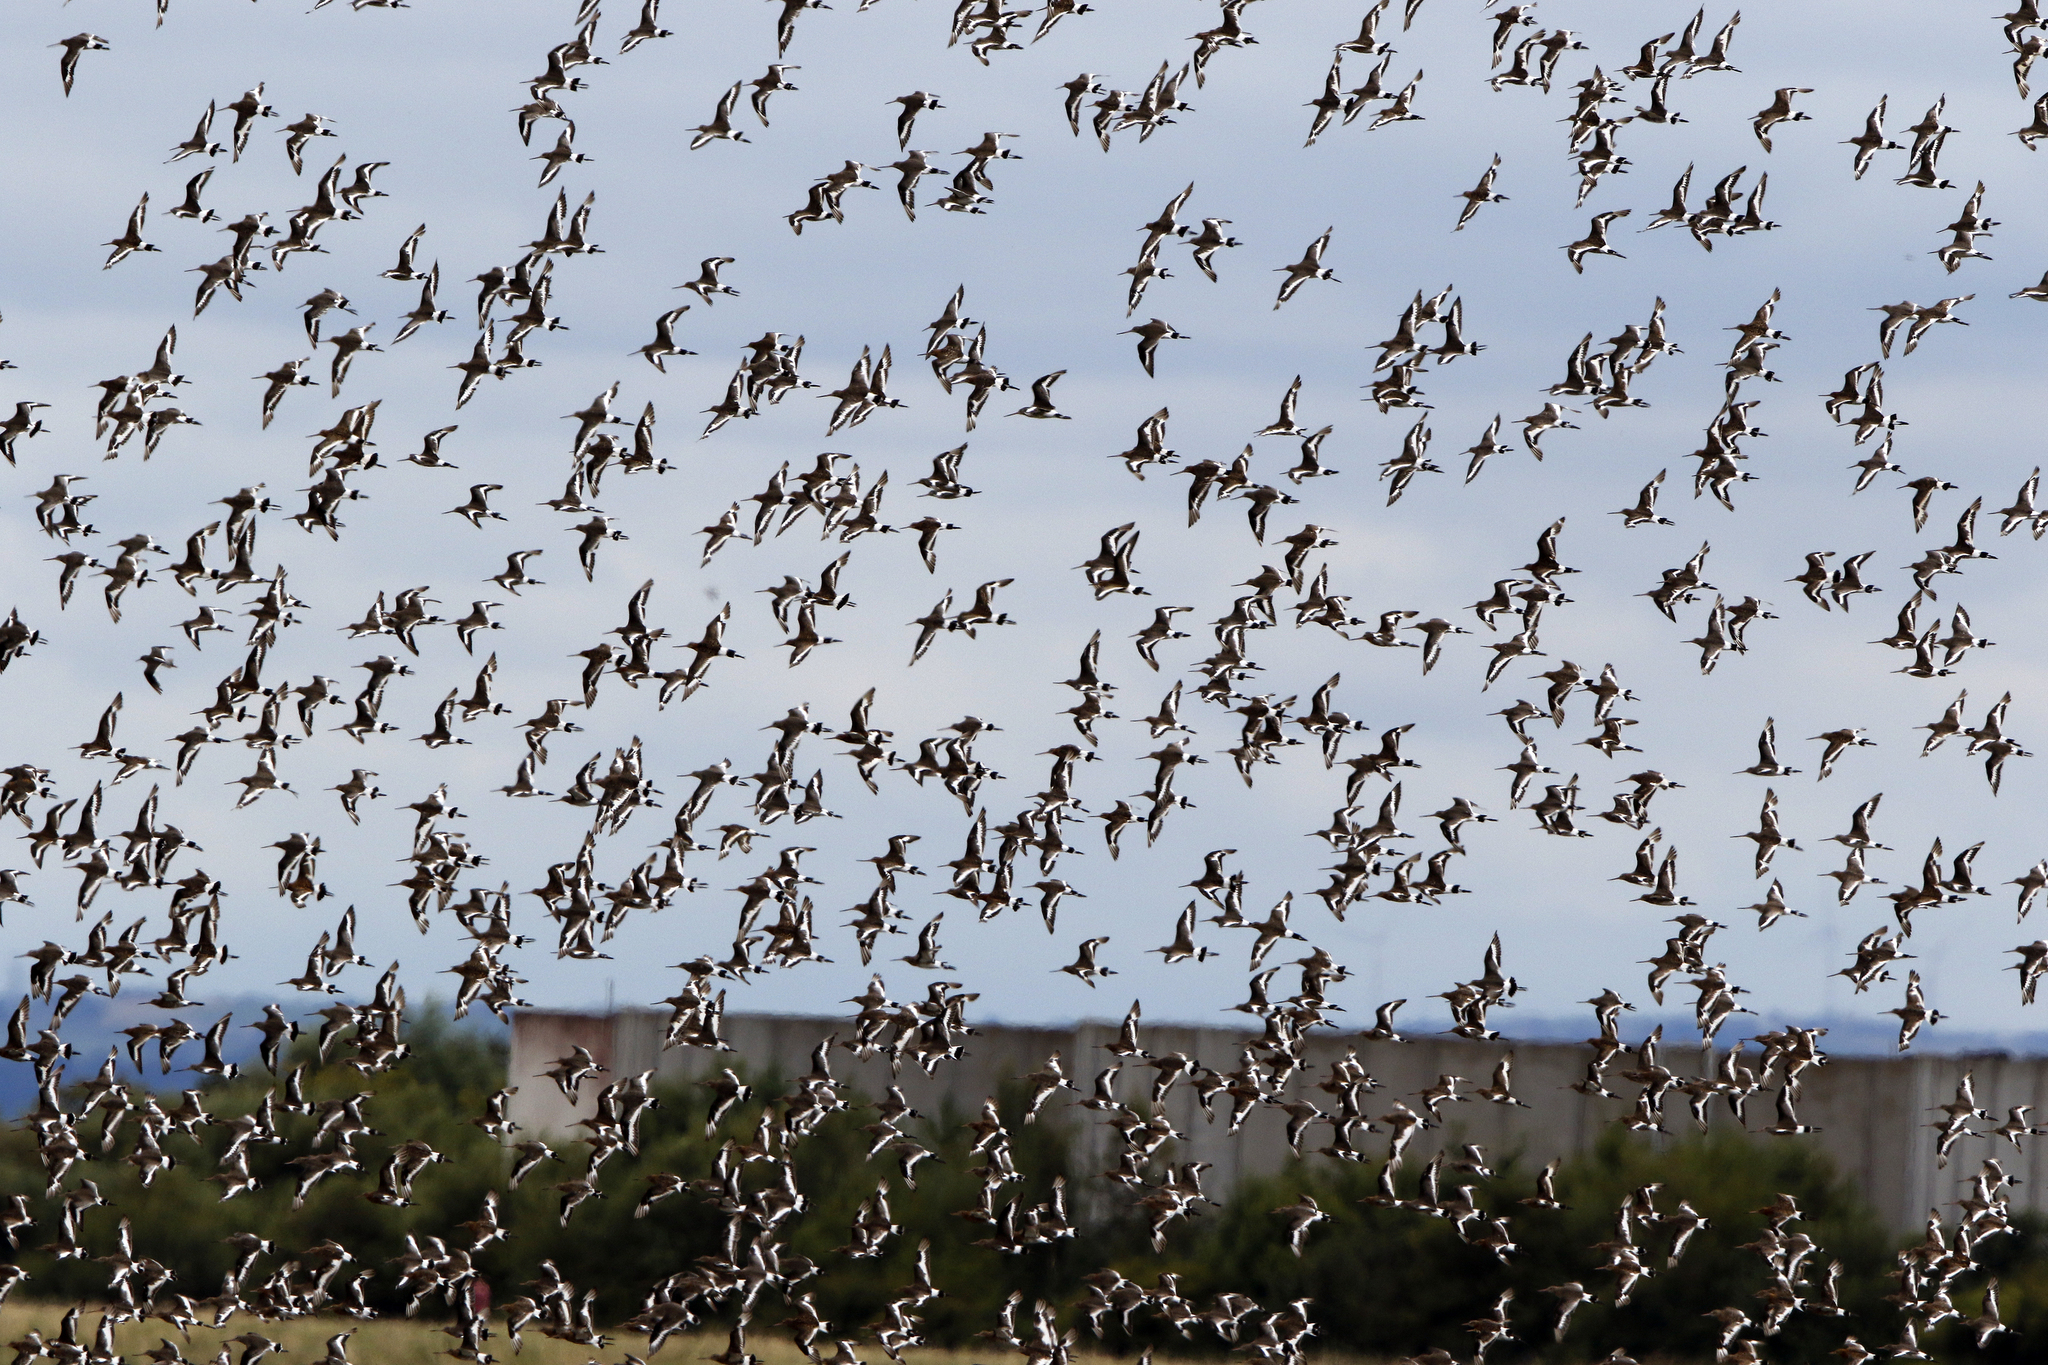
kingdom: Animalia
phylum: Chordata
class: Aves
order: Charadriiformes
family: Scolopacidae
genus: Limosa
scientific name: Limosa limosa
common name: Black-tailed godwit
